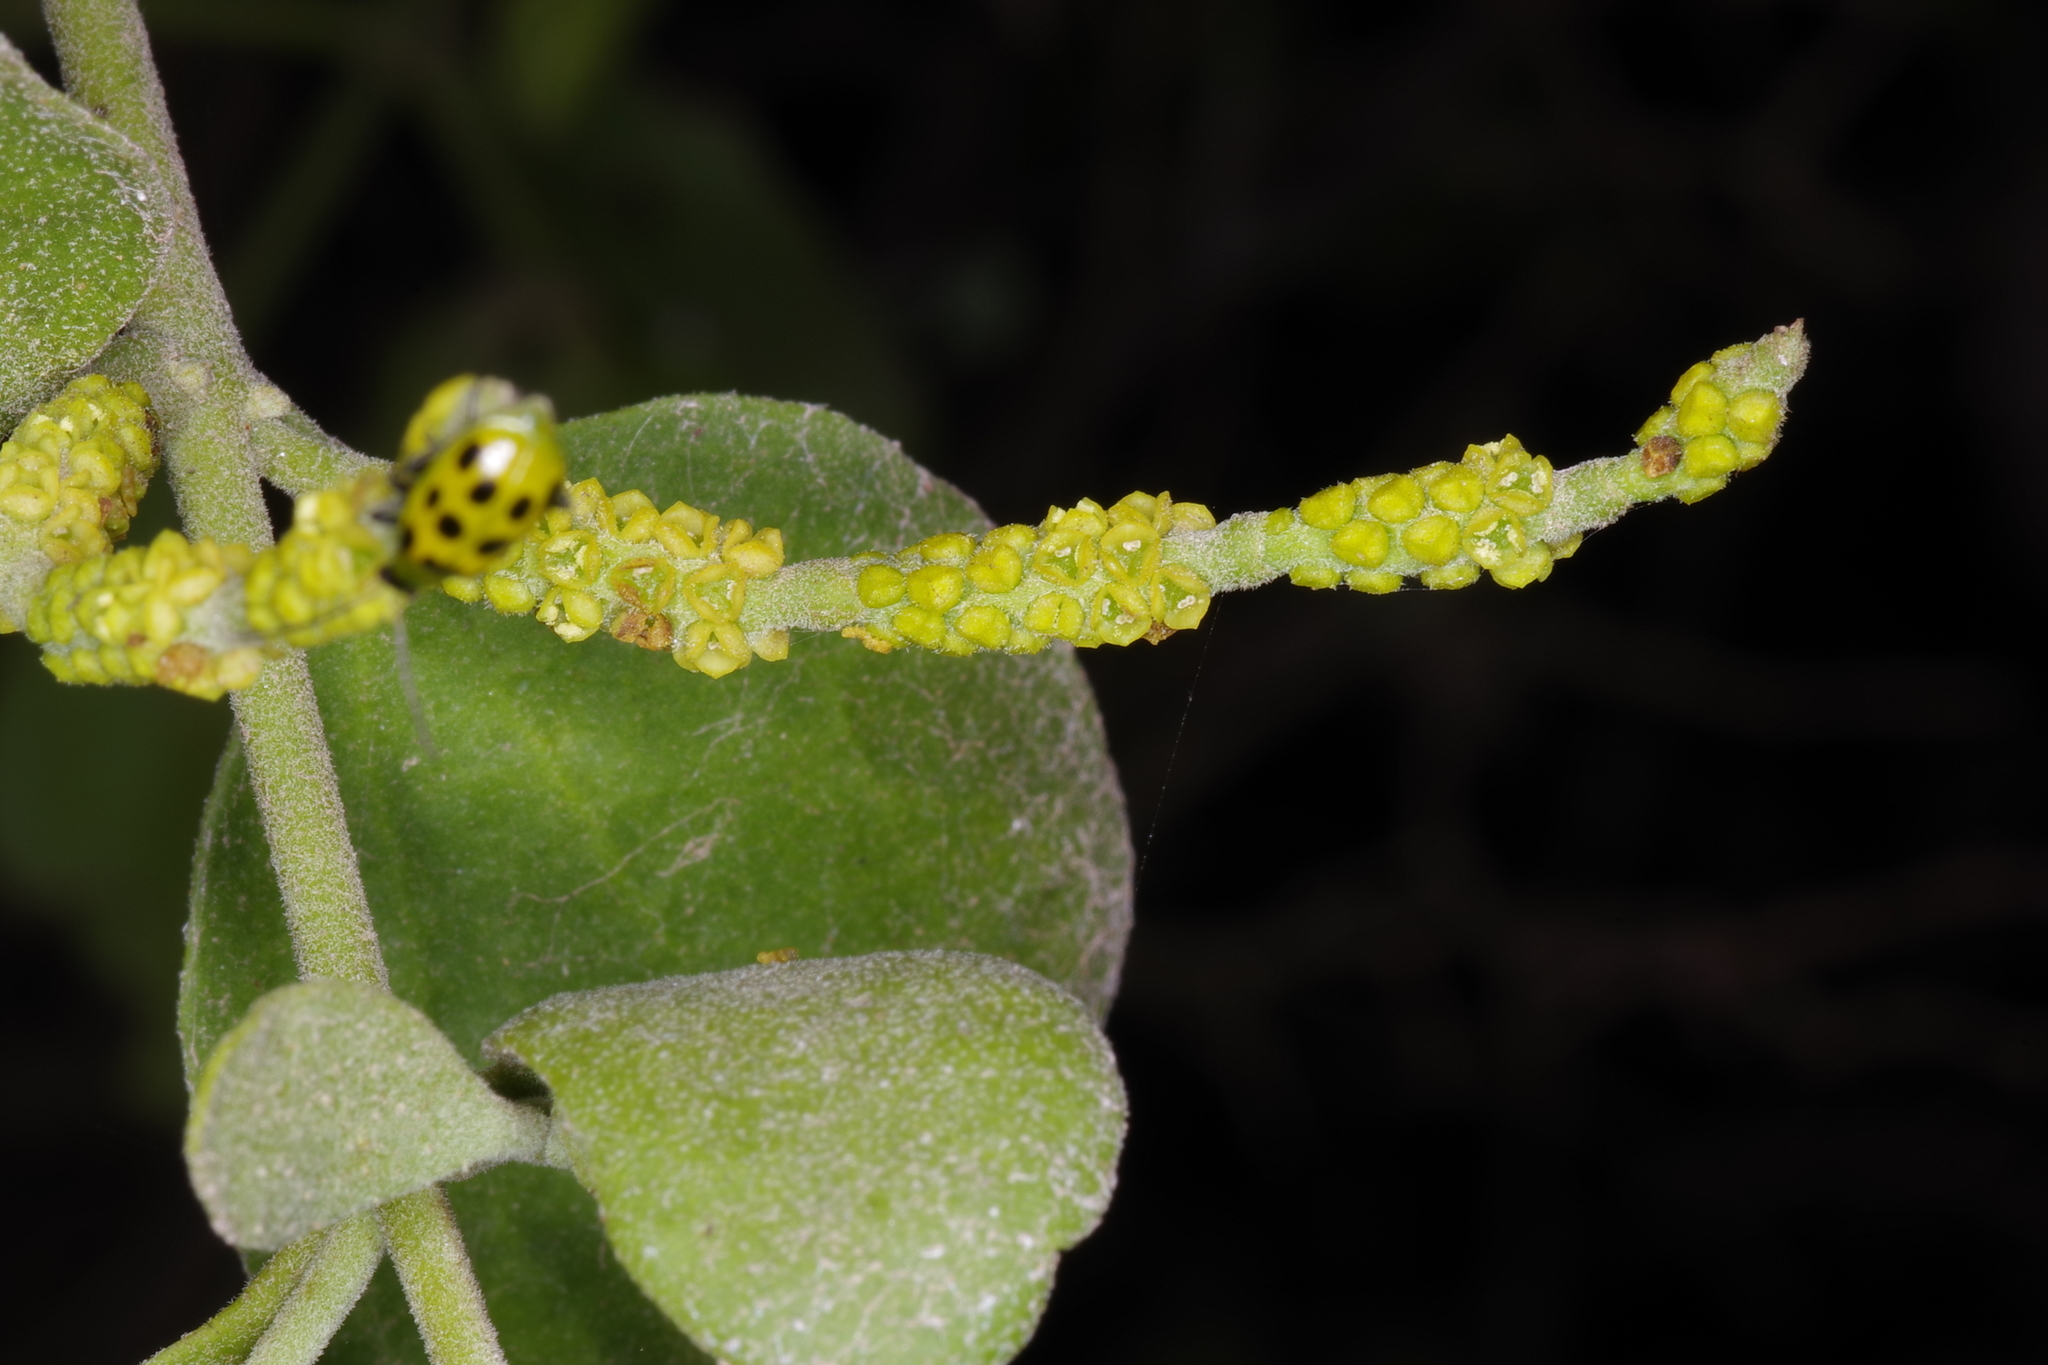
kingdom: Plantae
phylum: Tracheophyta
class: Magnoliopsida
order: Santalales
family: Viscaceae
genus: Phoradendron
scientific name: Phoradendron leucarpum
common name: Pacific mistletoe
